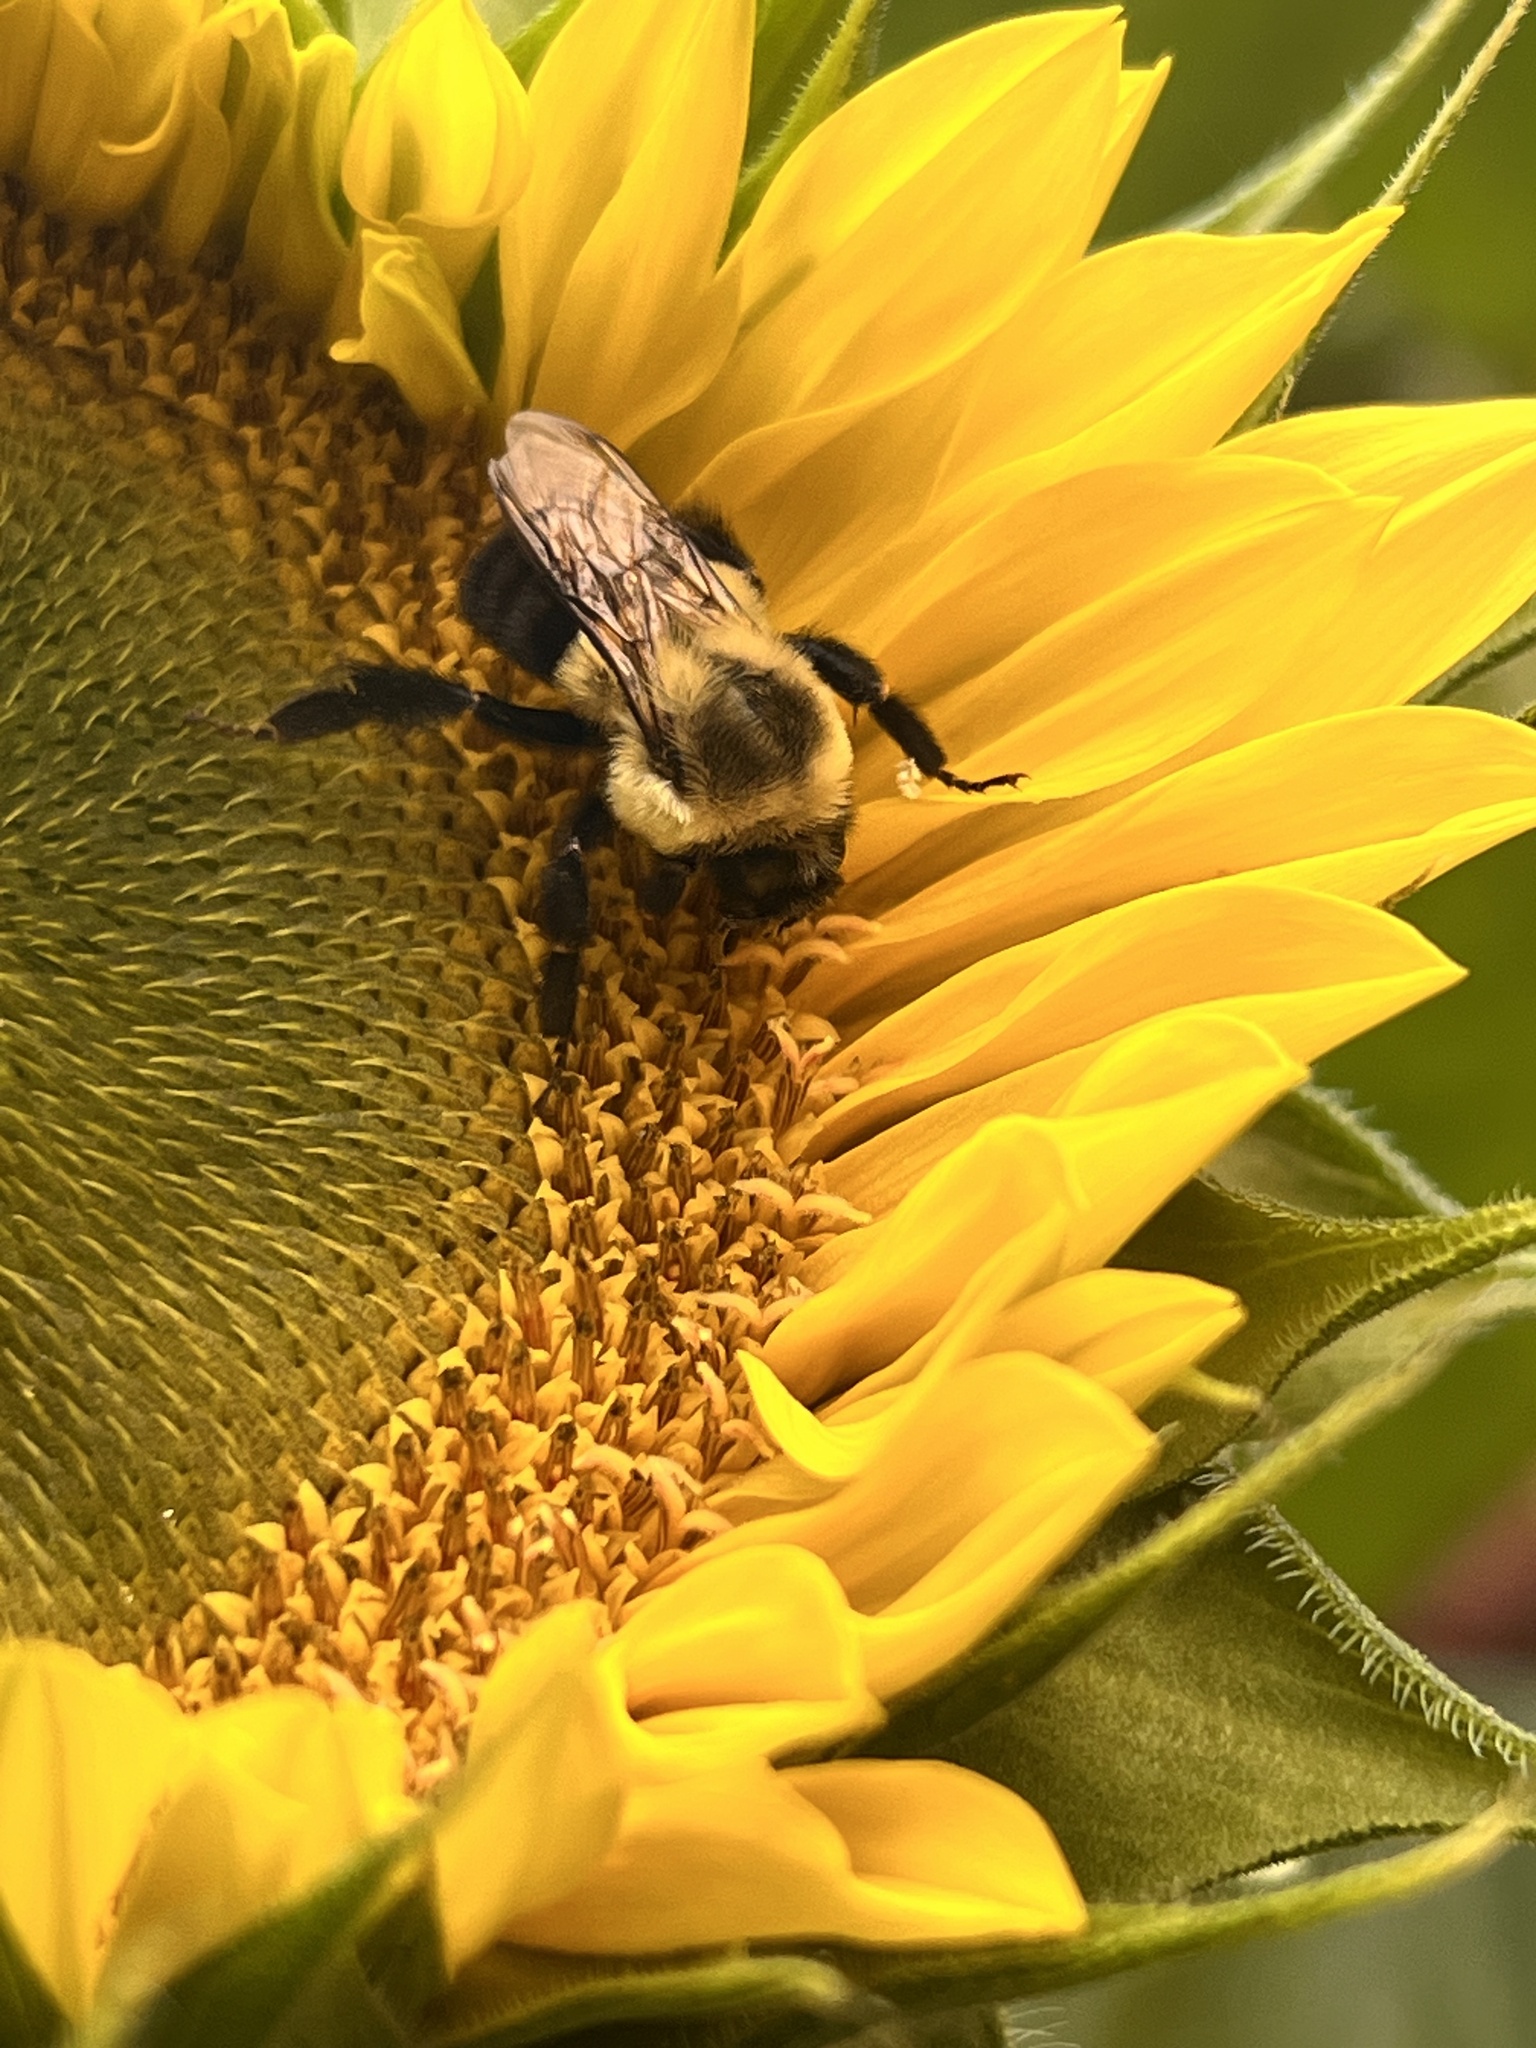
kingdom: Animalia
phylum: Arthropoda
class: Insecta
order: Hymenoptera
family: Apidae
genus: Bombus
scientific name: Bombus impatiens
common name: Common eastern bumble bee
